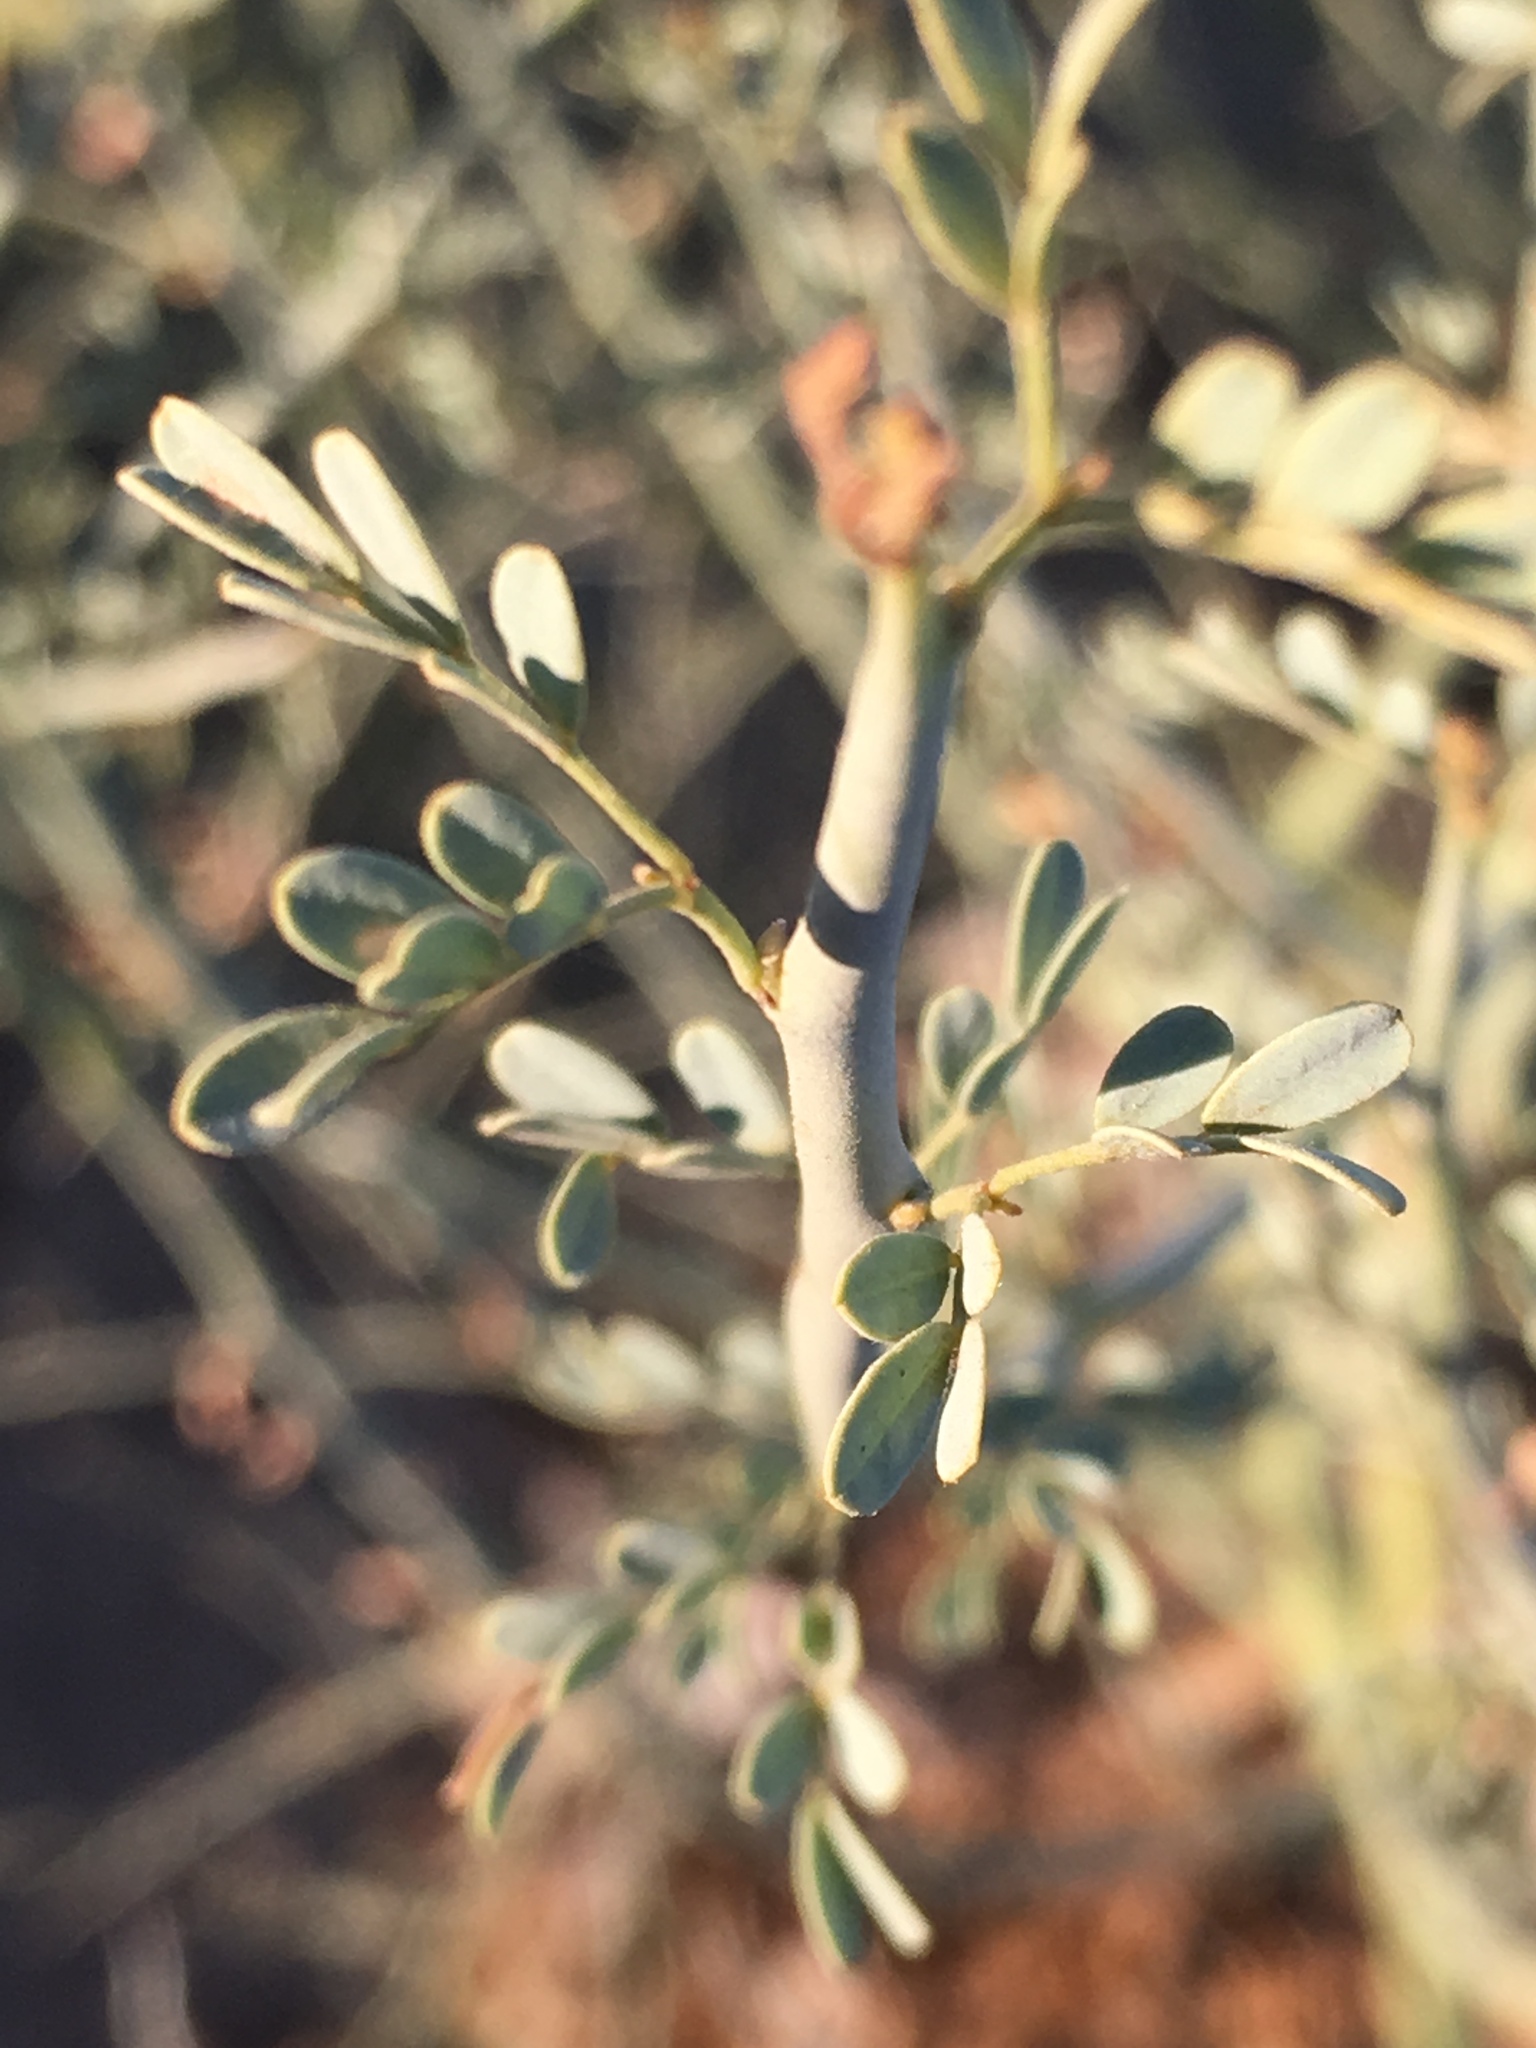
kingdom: Plantae
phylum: Tracheophyta
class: Magnoliopsida
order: Fabales
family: Fabaceae
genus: Parkinsonia
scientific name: Parkinsonia florida
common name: Blue paloverde
